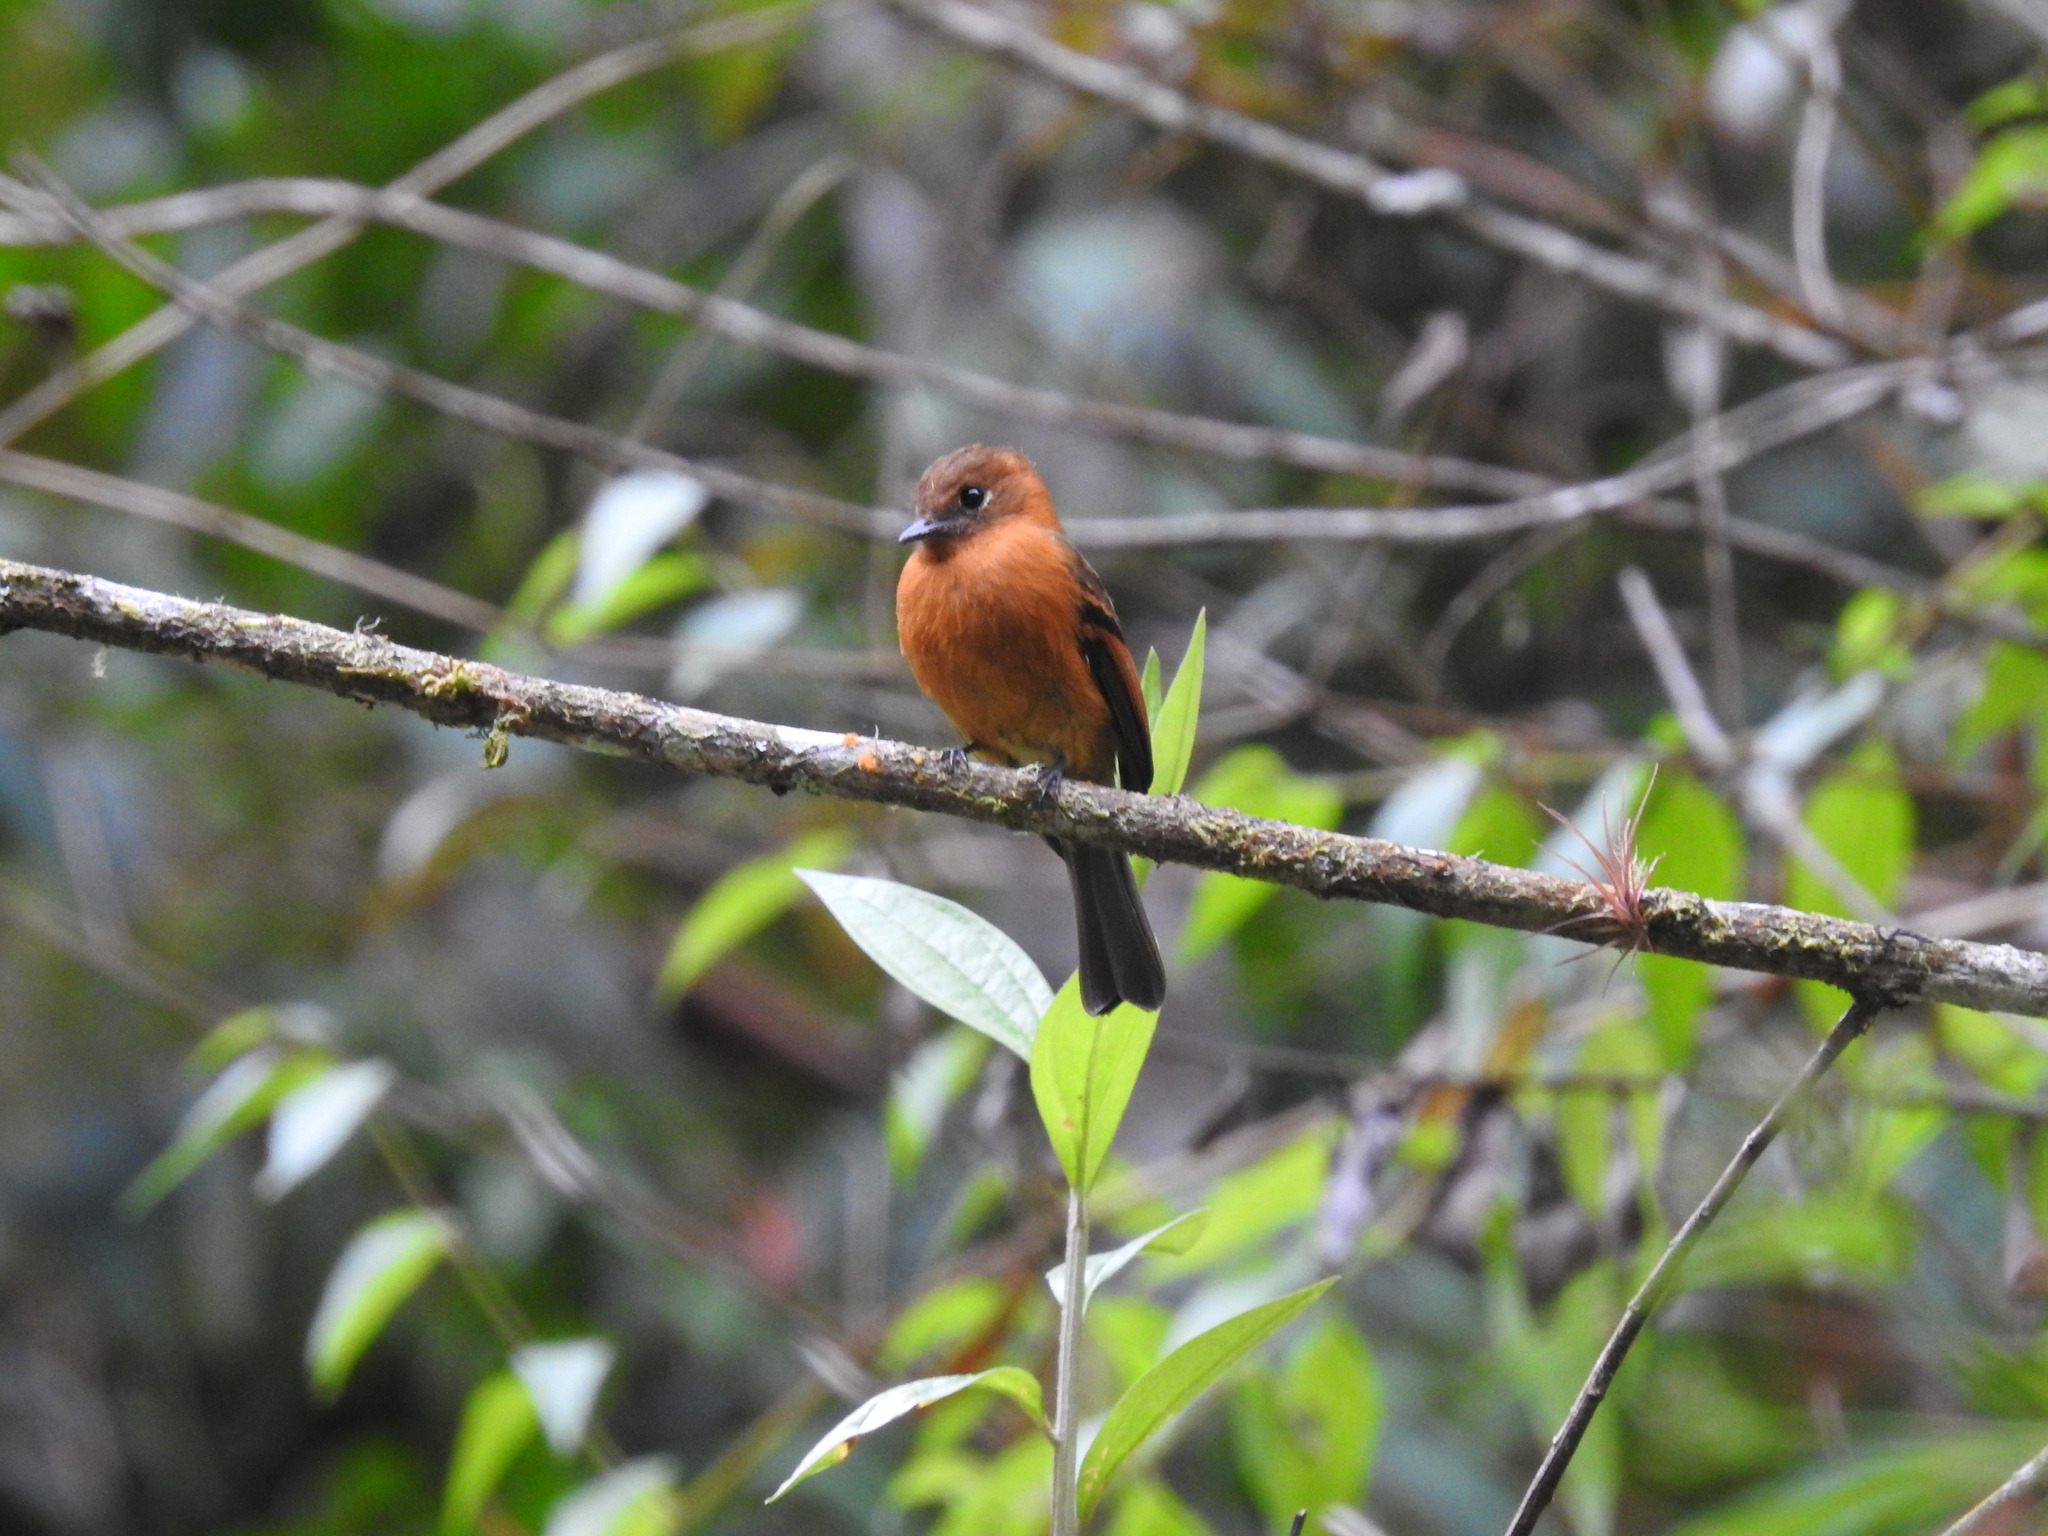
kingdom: Animalia
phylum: Chordata
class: Aves
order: Passeriformes
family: Tyrannidae
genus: Pyrrhomyias
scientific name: Pyrrhomyias cinnamomeus
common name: Cinnamon flycatcher
